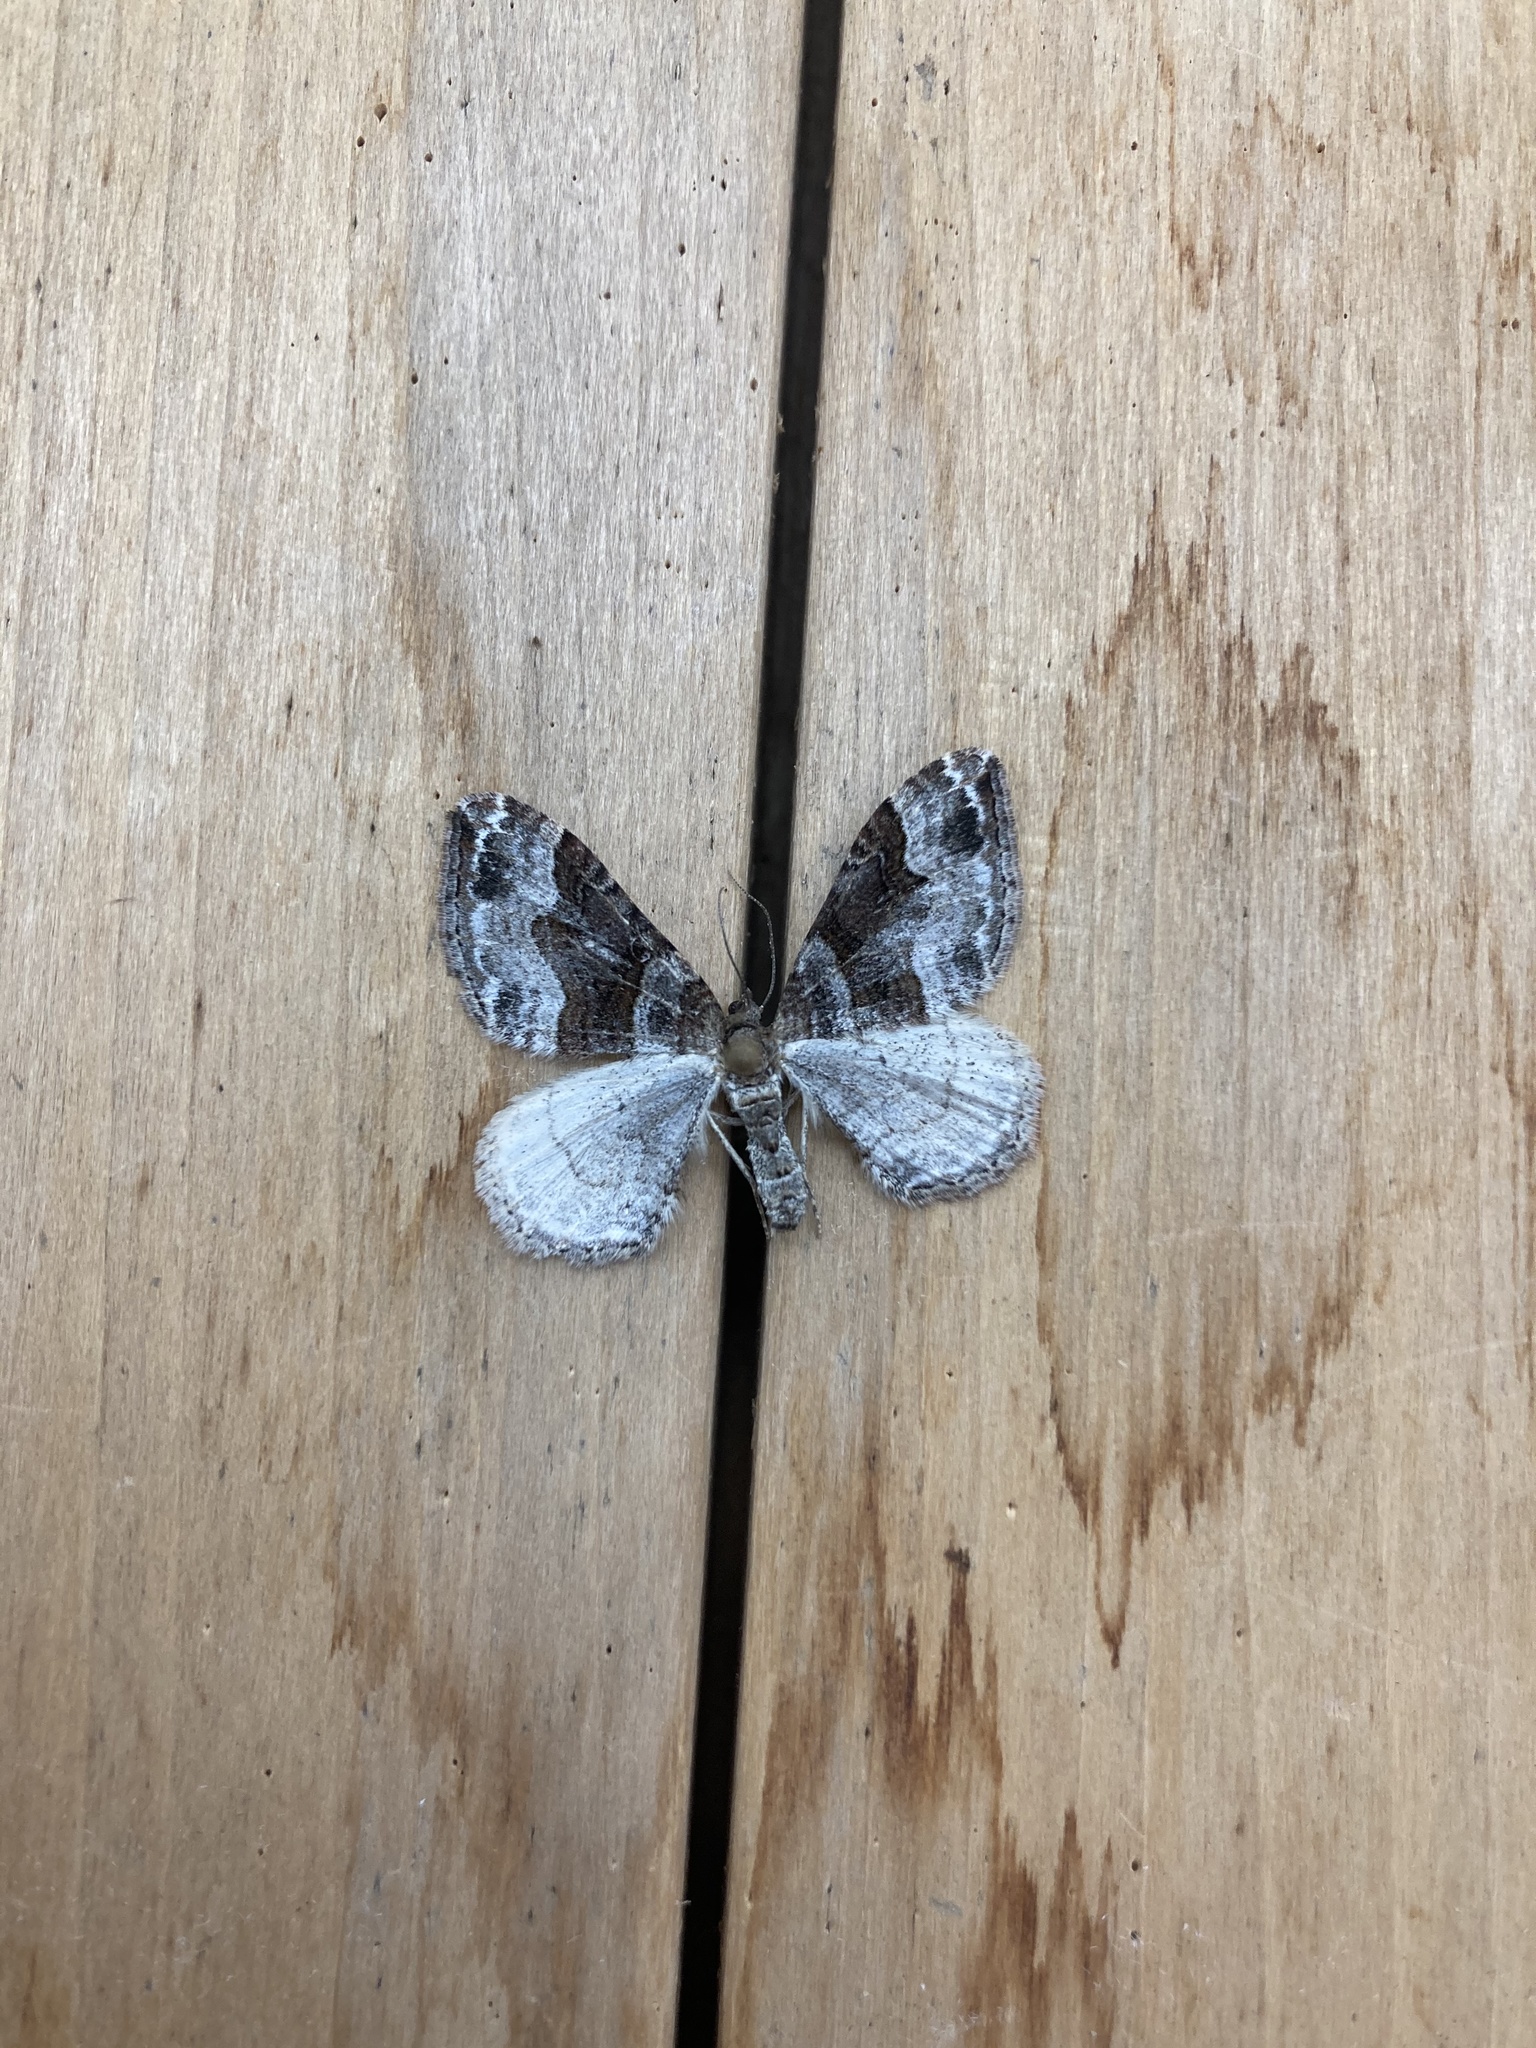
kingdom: Animalia
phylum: Arthropoda
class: Insecta
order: Lepidoptera
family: Geometridae
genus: Xanthorhoe
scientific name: Xanthorhoe defensaria
